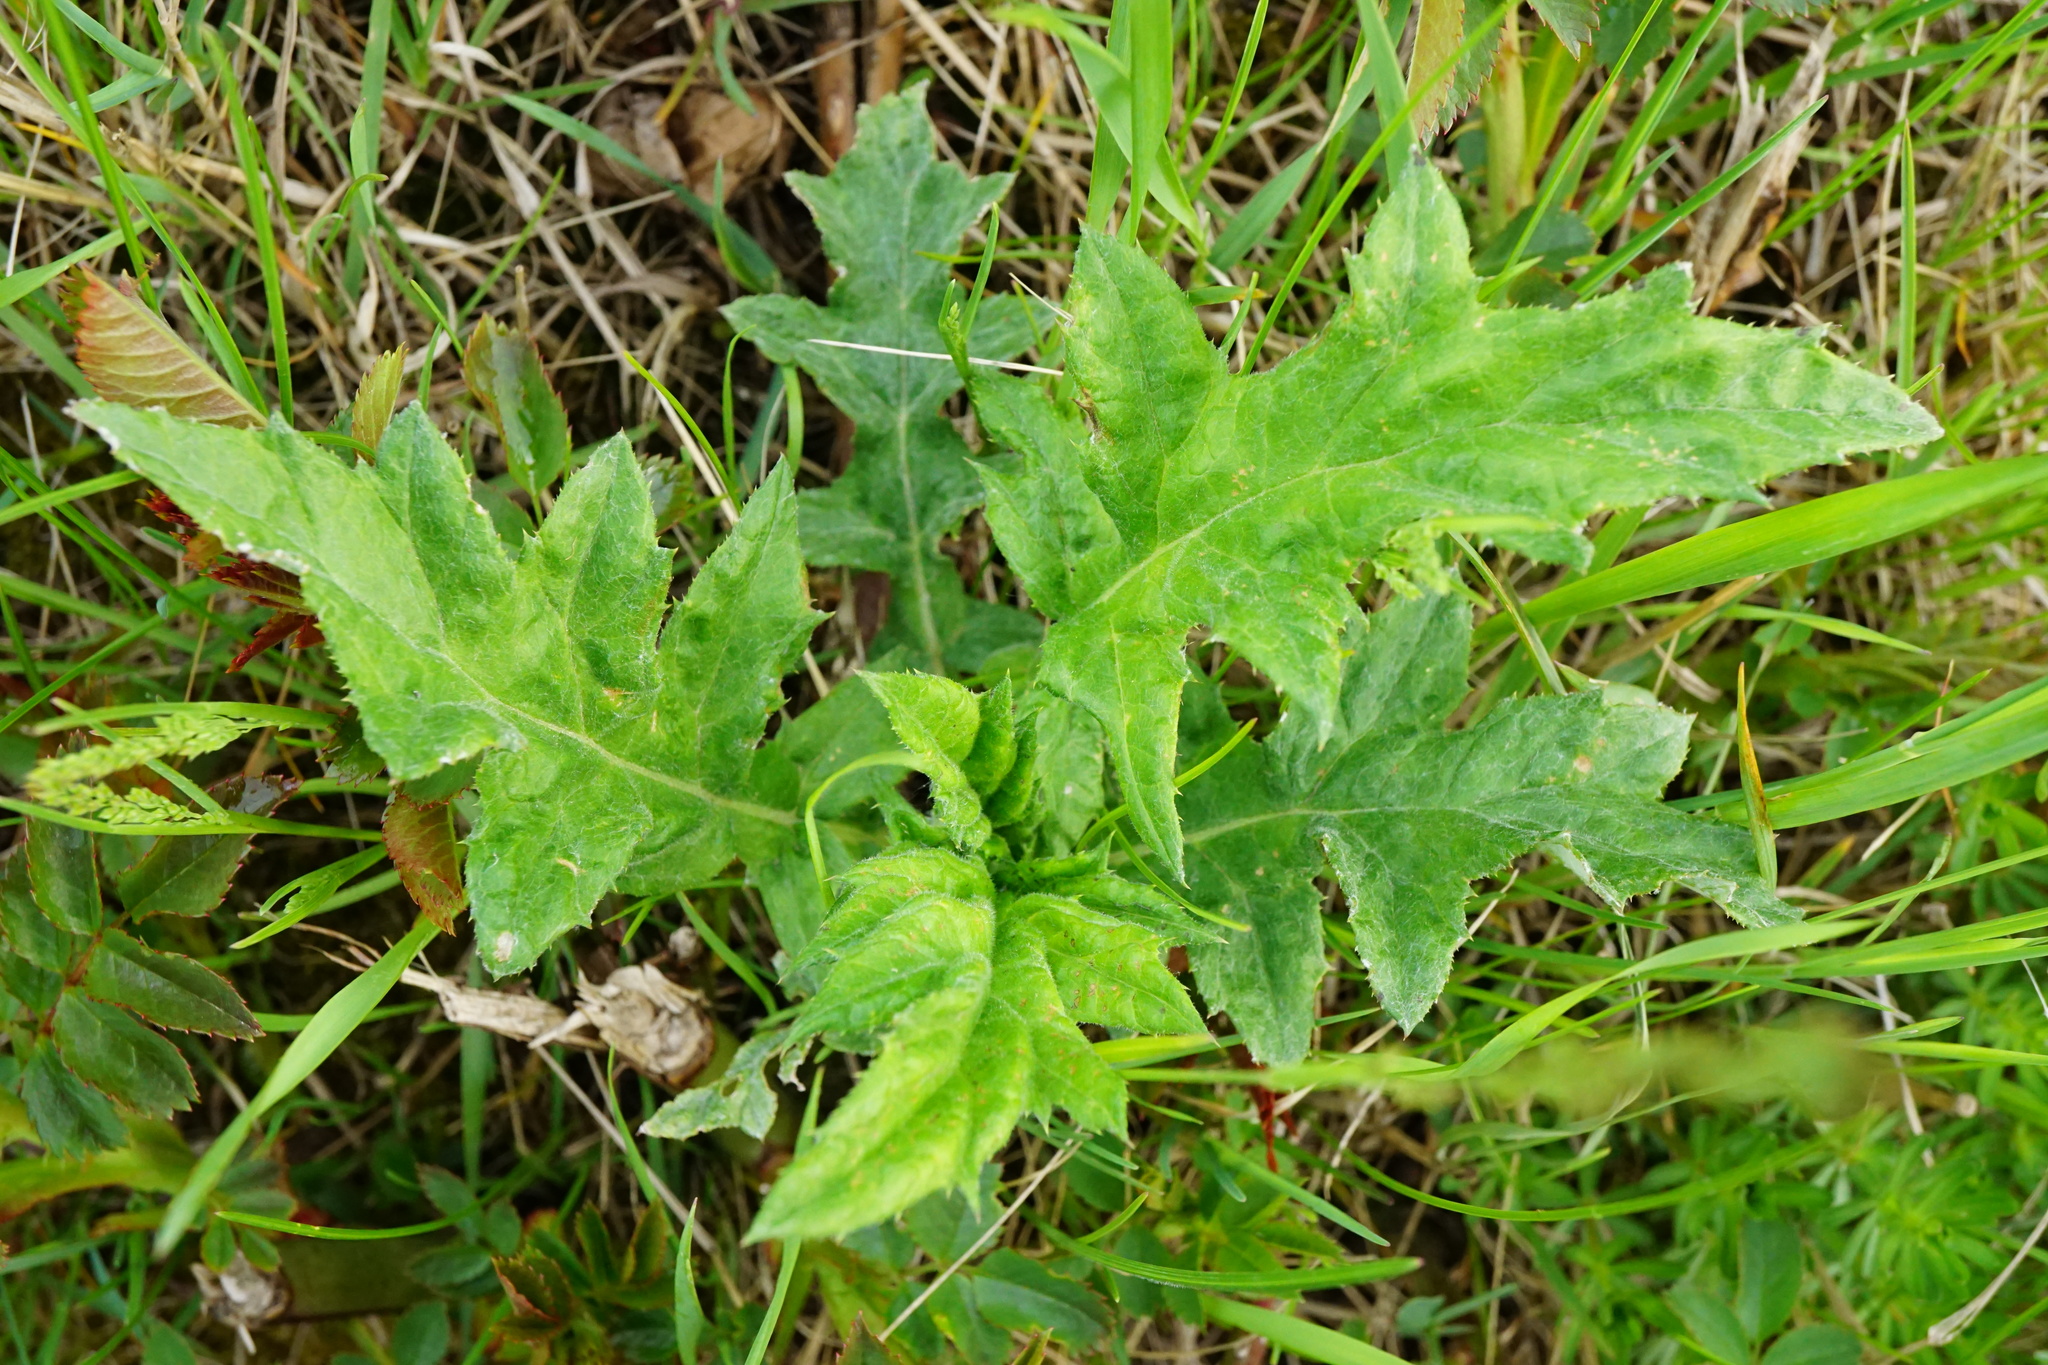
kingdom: Plantae
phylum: Tracheophyta
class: Magnoliopsida
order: Asterales
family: Asteraceae
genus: Echinops
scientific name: Echinops sphaerocephalus
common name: Glandular globe-thistle
